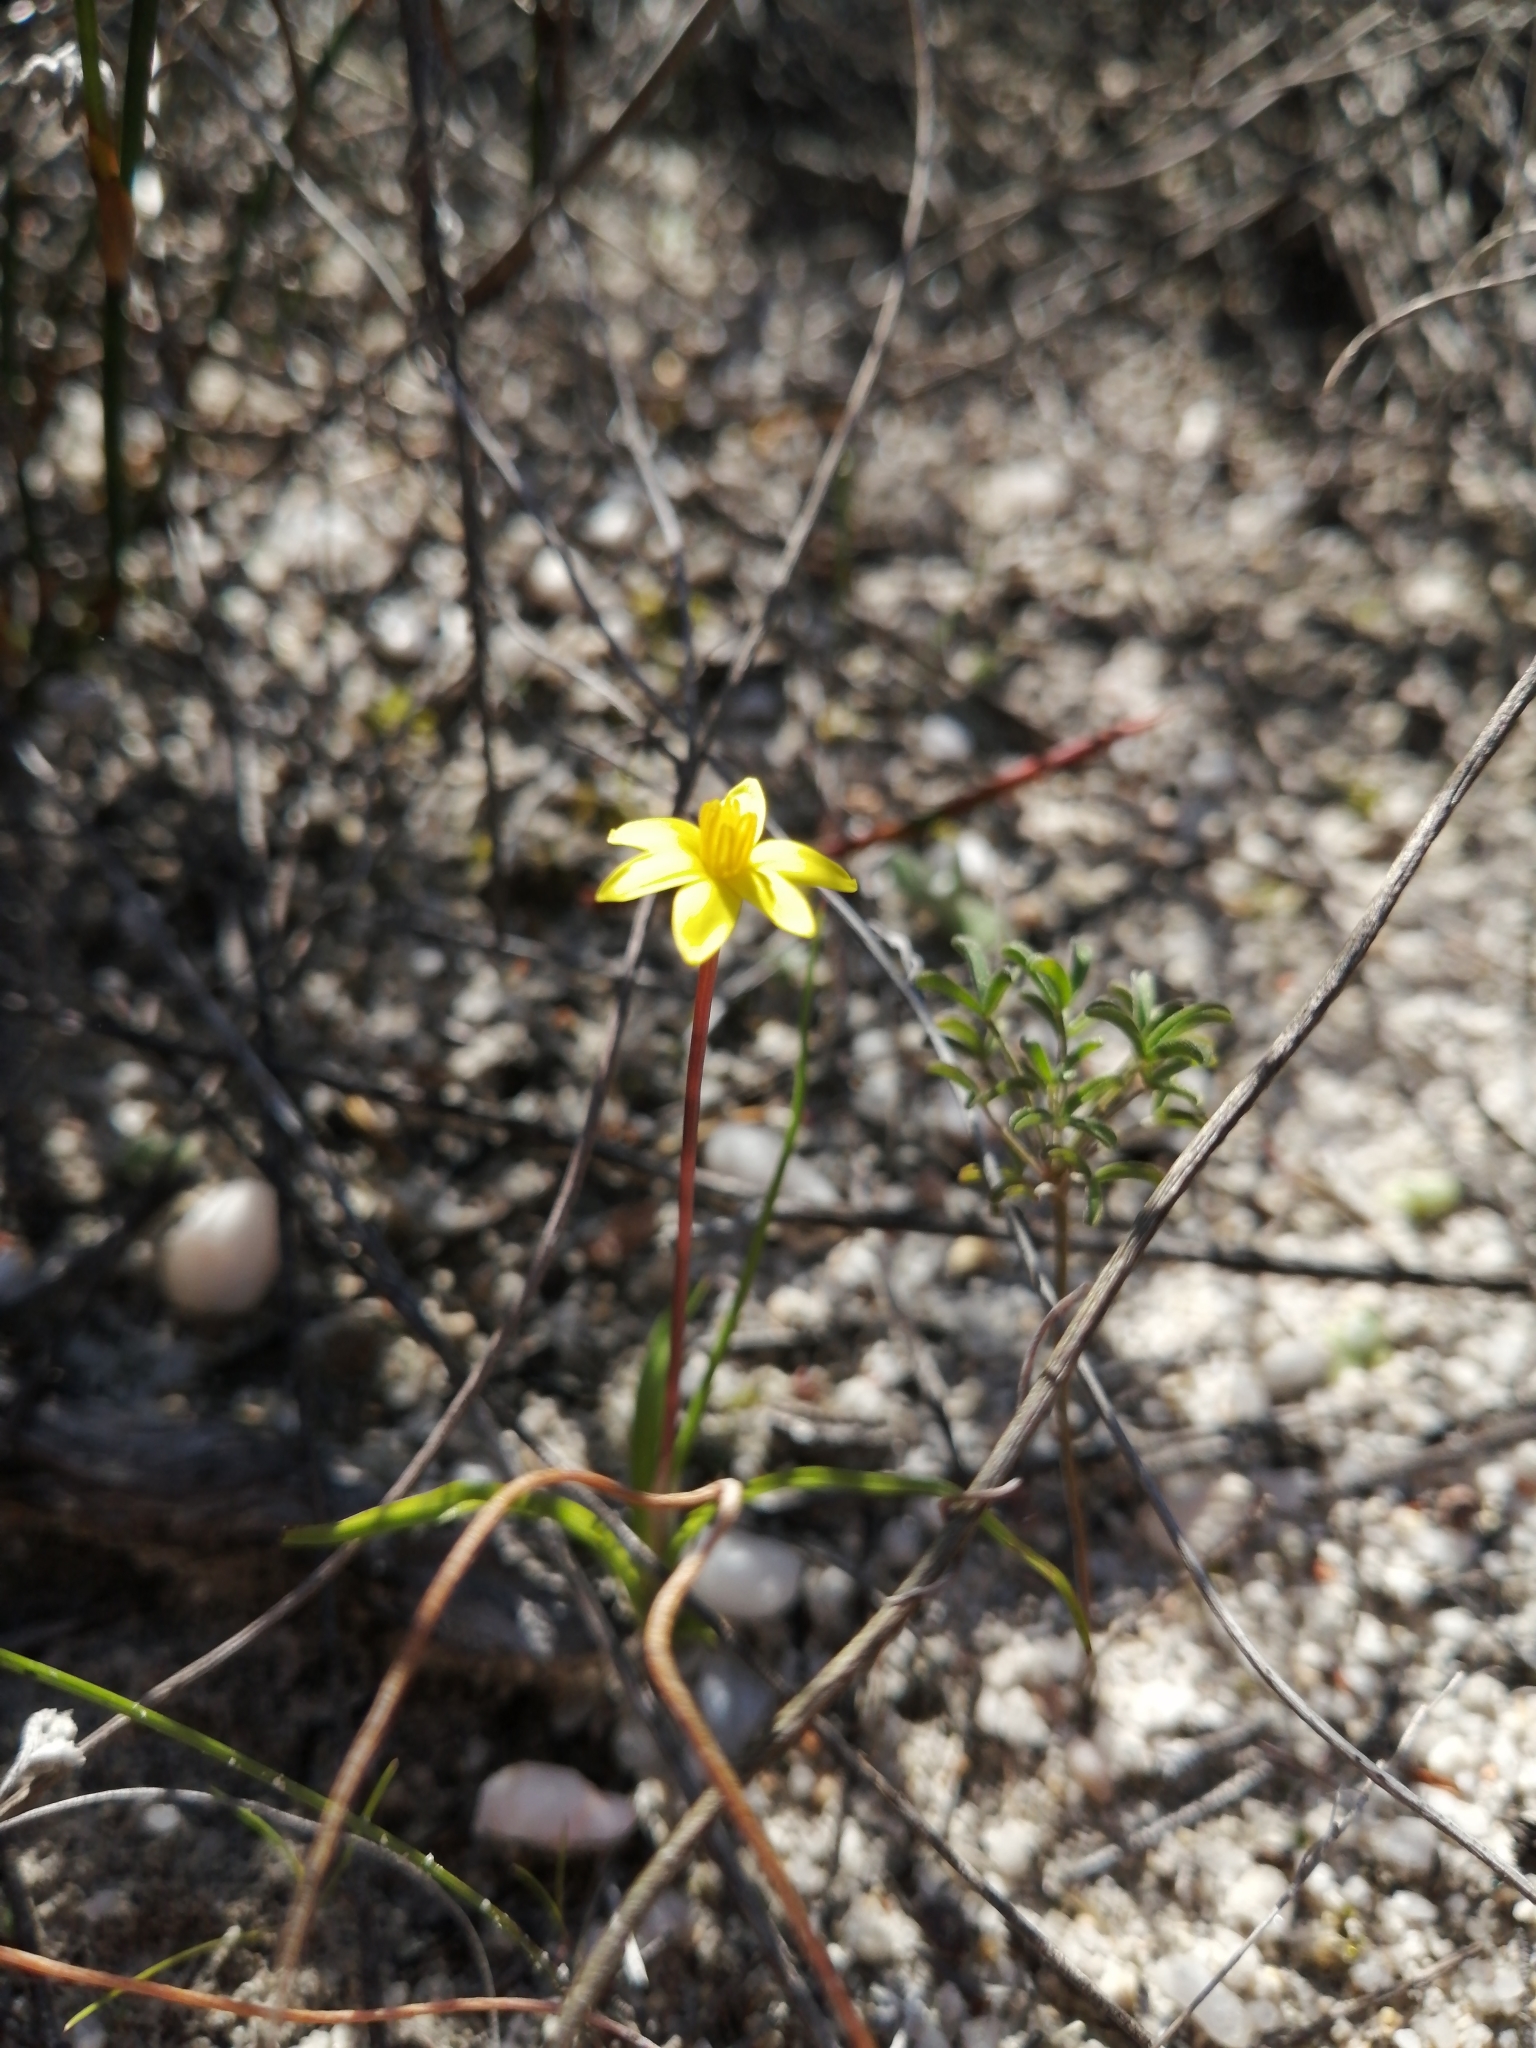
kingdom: Plantae
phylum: Tracheophyta
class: Liliopsida
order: Asparagales
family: Hypoxidaceae
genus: Pauridia
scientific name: Pauridia flaccida
